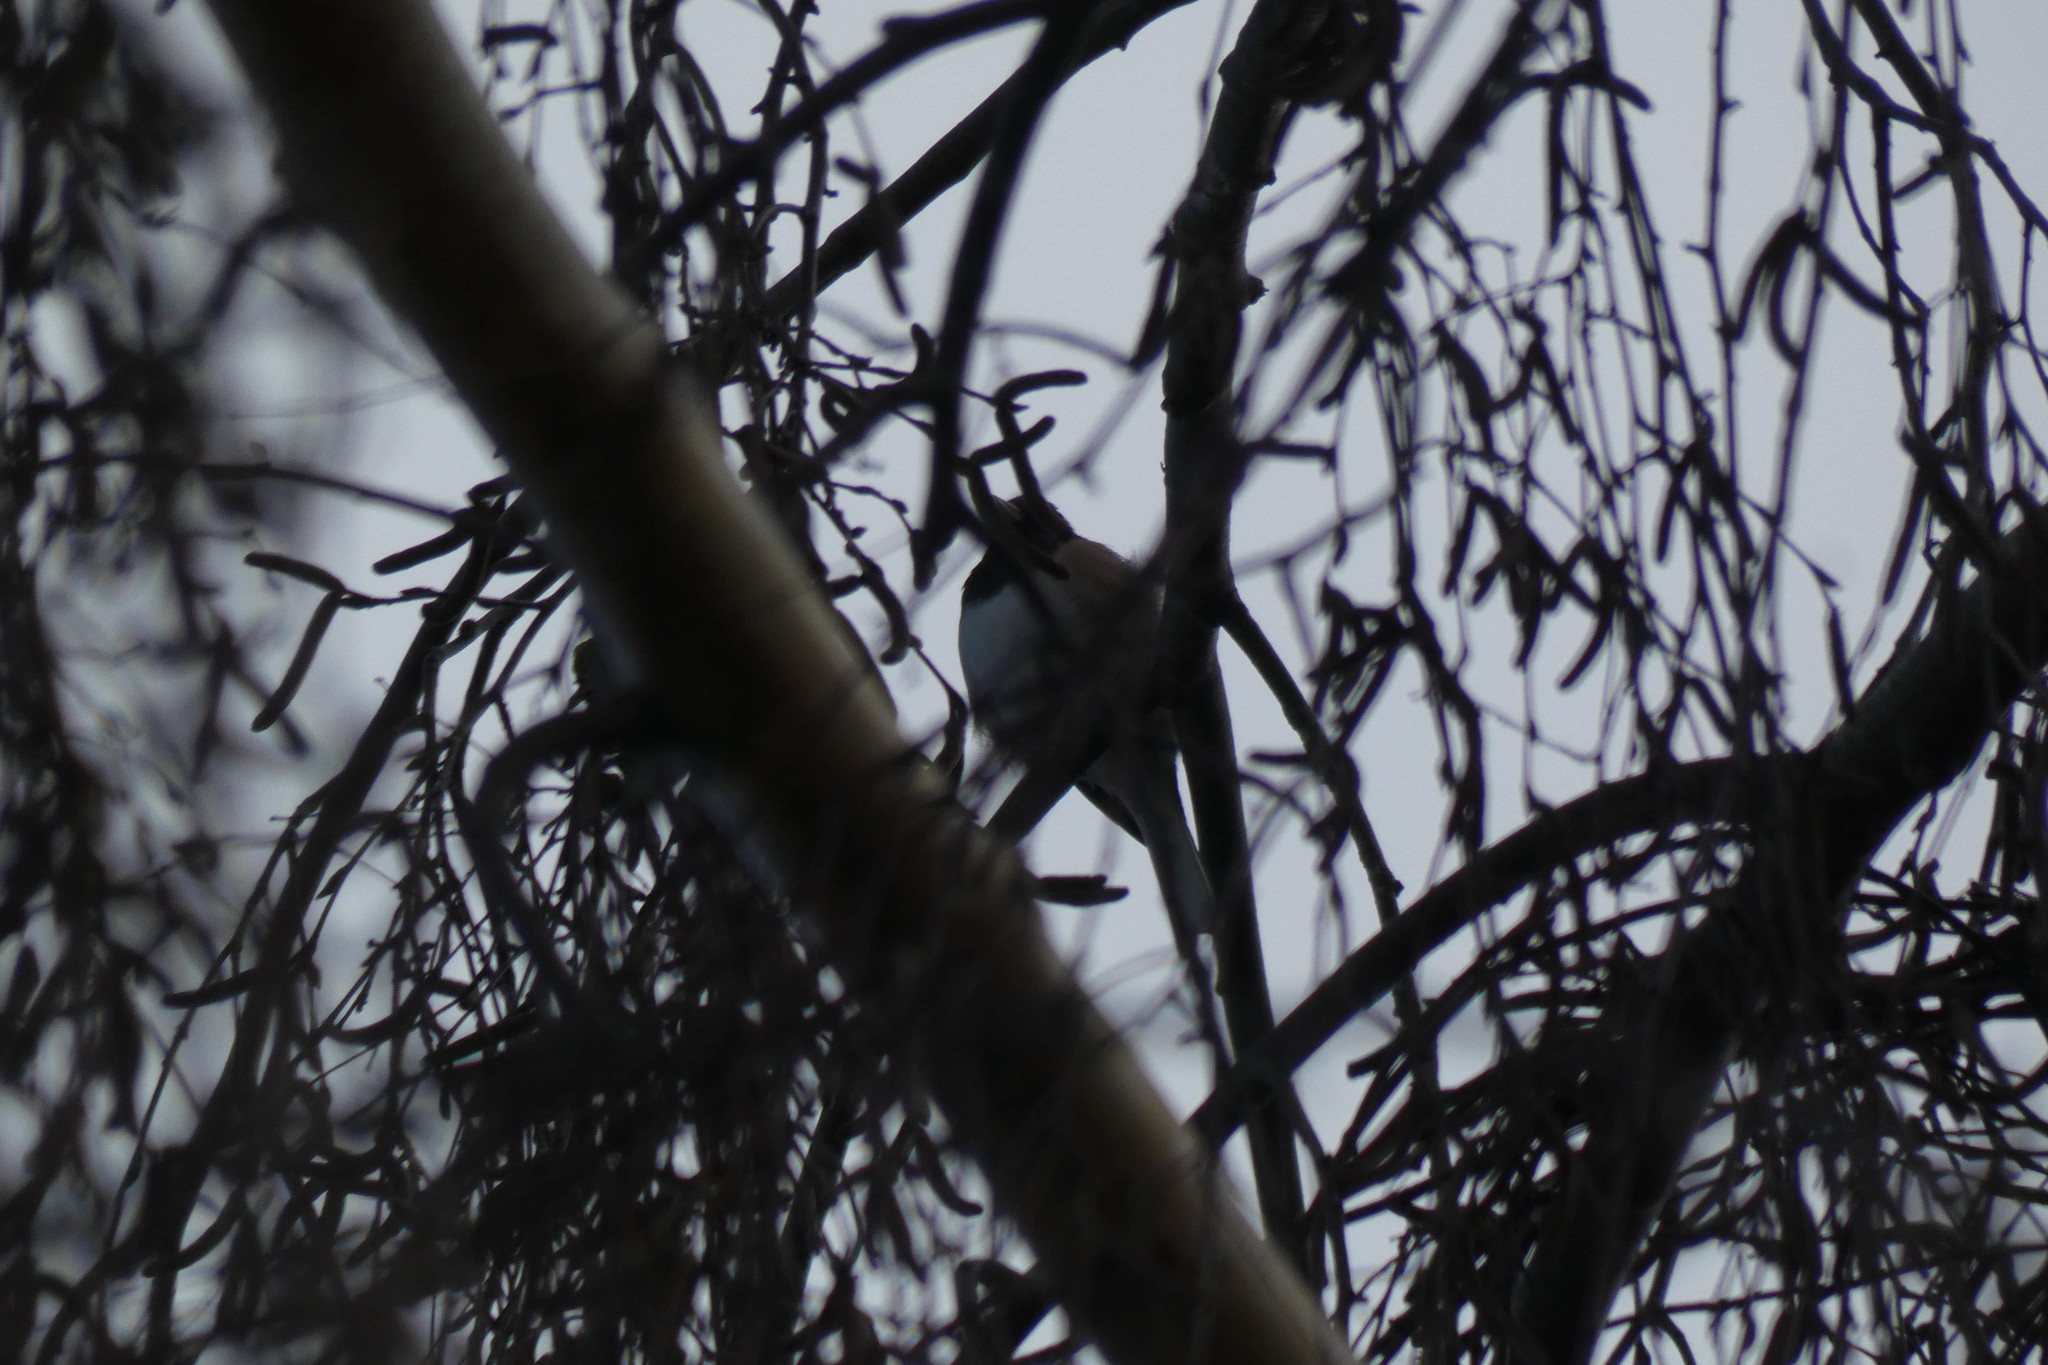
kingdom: Animalia
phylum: Chordata
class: Aves
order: Passeriformes
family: Passerellidae
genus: Junco
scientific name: Junco hyemalis
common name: Dark-eyed junco
